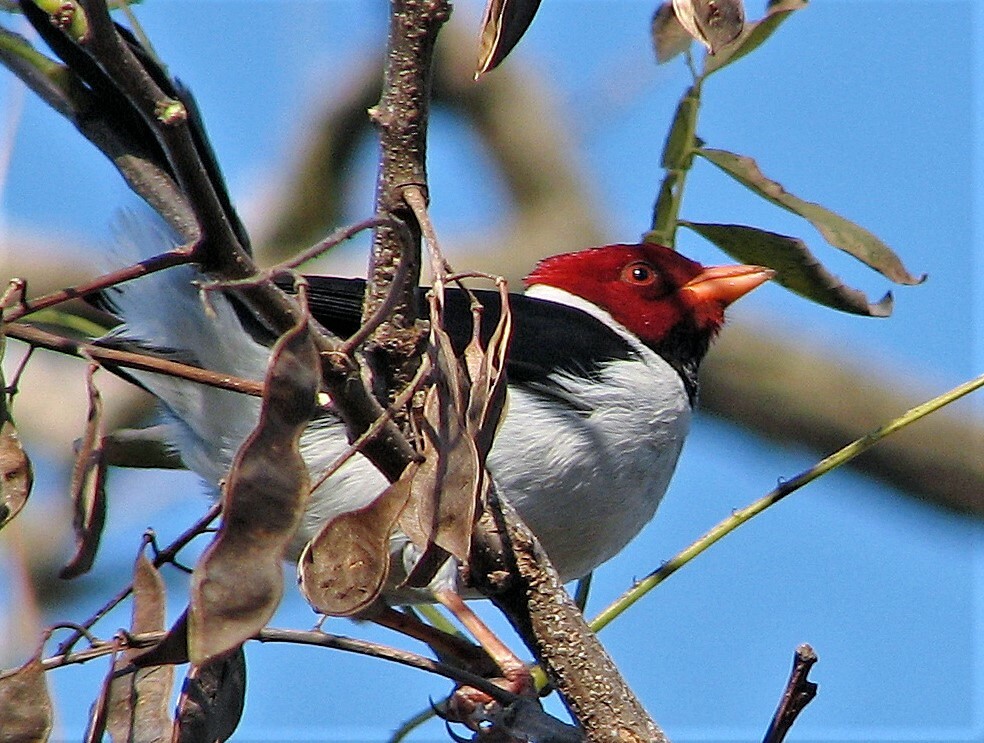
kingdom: Animalia
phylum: Chordata
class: Aves
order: Passeriformes
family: Thraupidae
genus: Paroaria
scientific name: Paroaria capitata
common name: Yellow-billed cardinal
